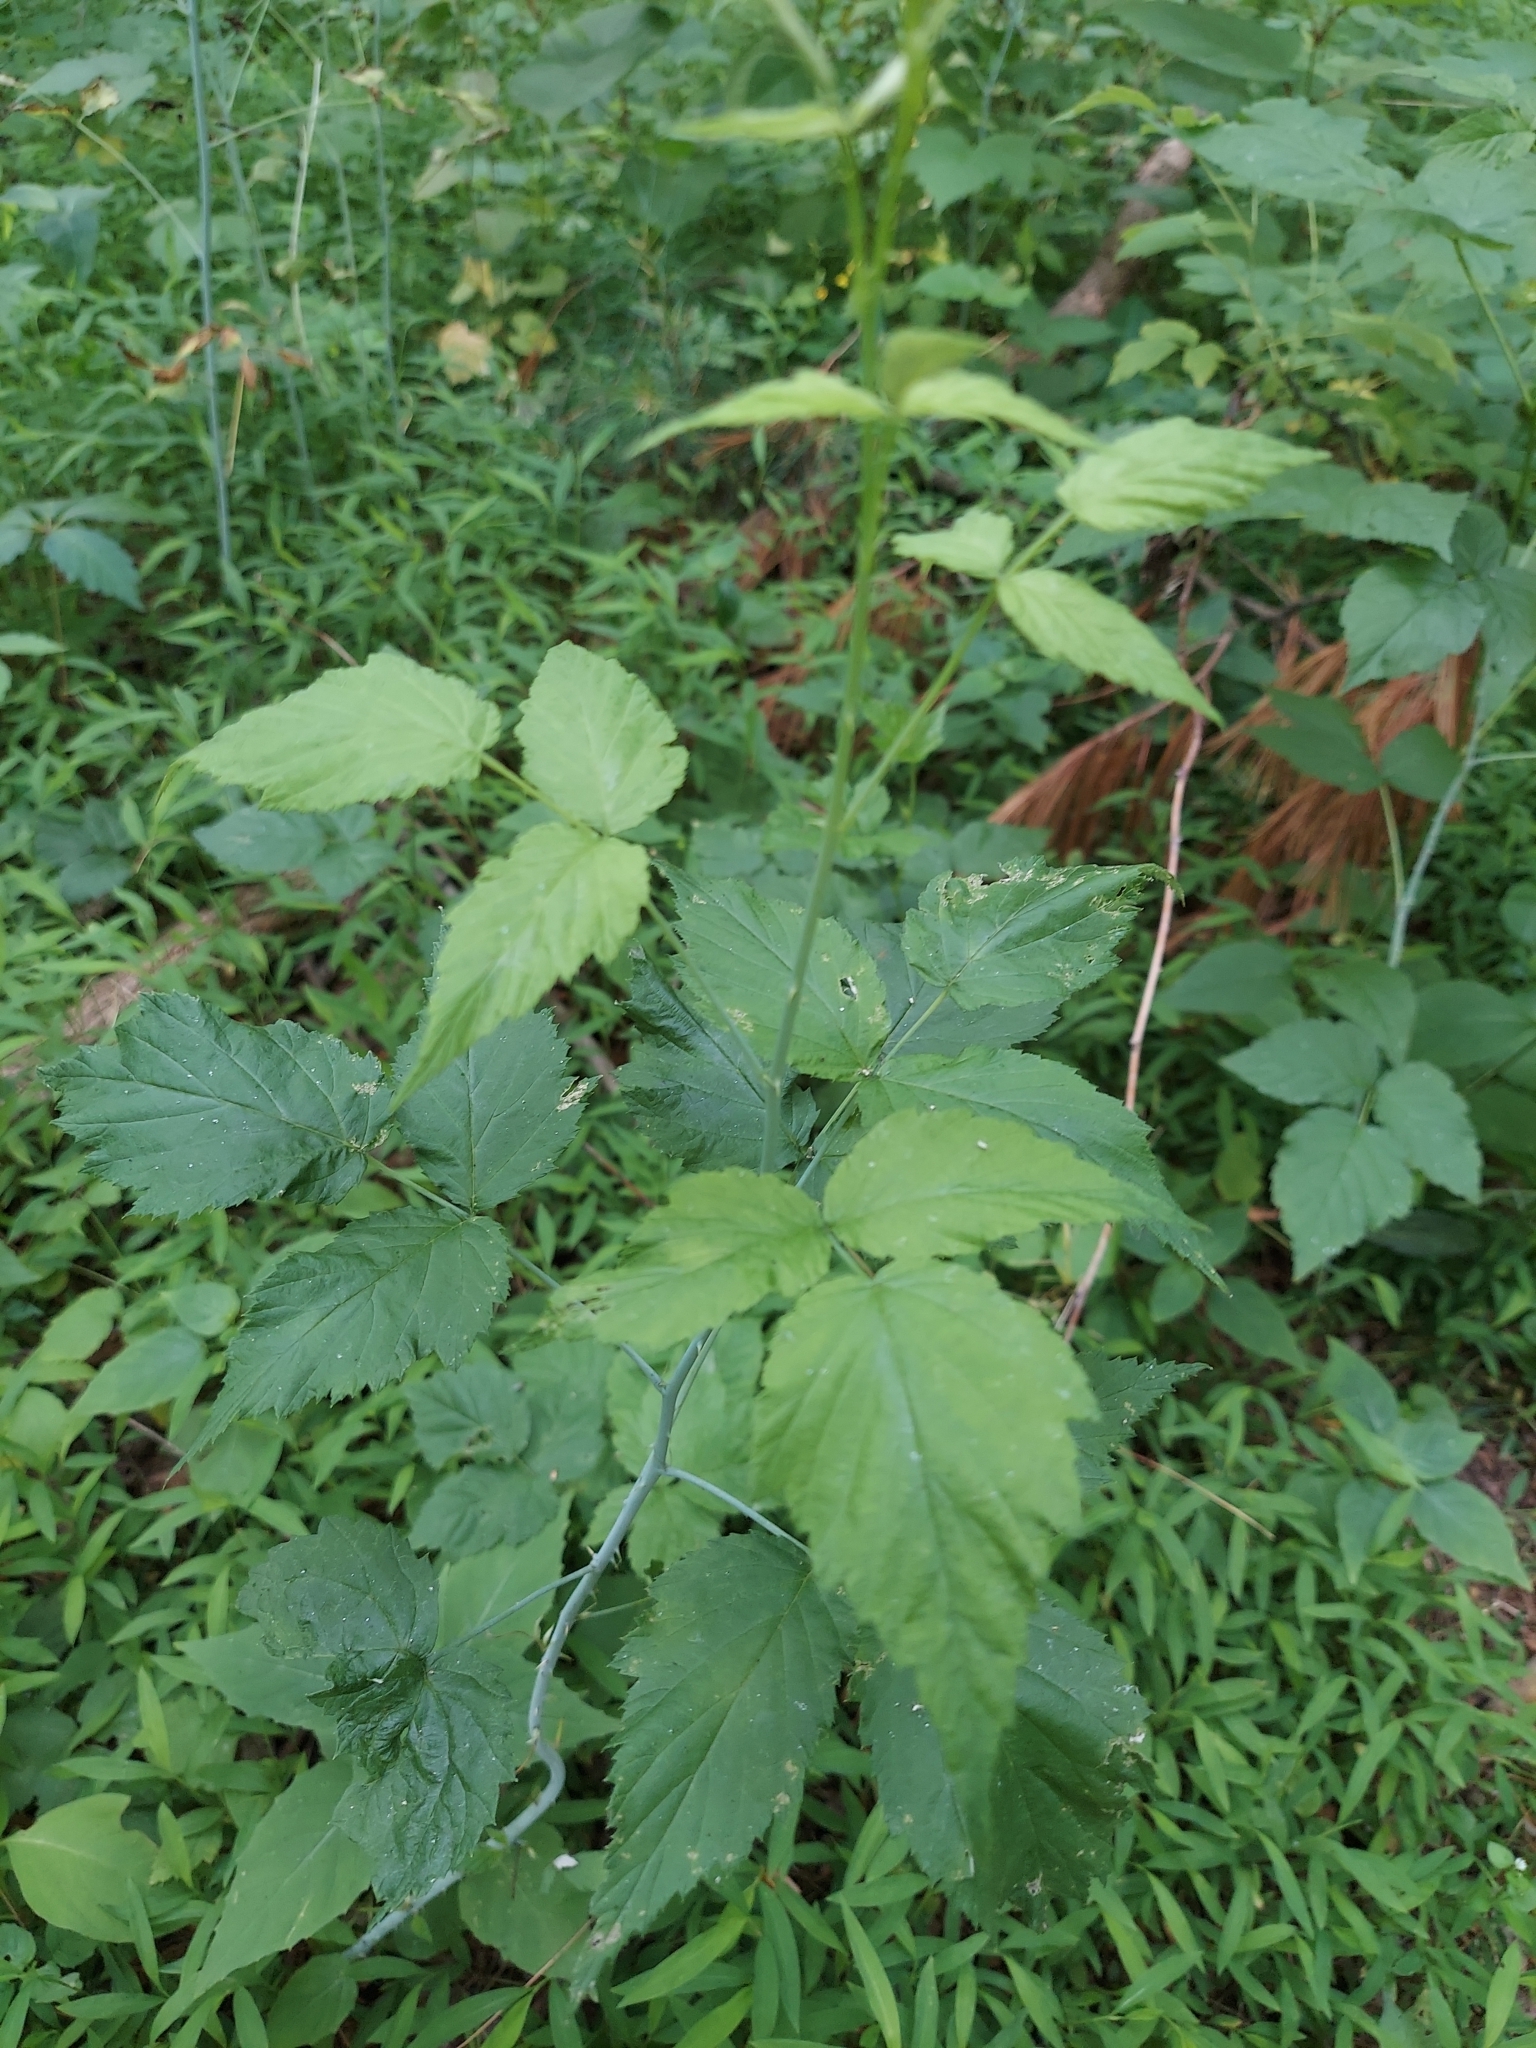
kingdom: Plantae
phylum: Tracheophyta
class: Magnoliopsida
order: Rosales
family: Rosaceae
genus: Rubus
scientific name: Rubus occidentalis
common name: Black raspberry
